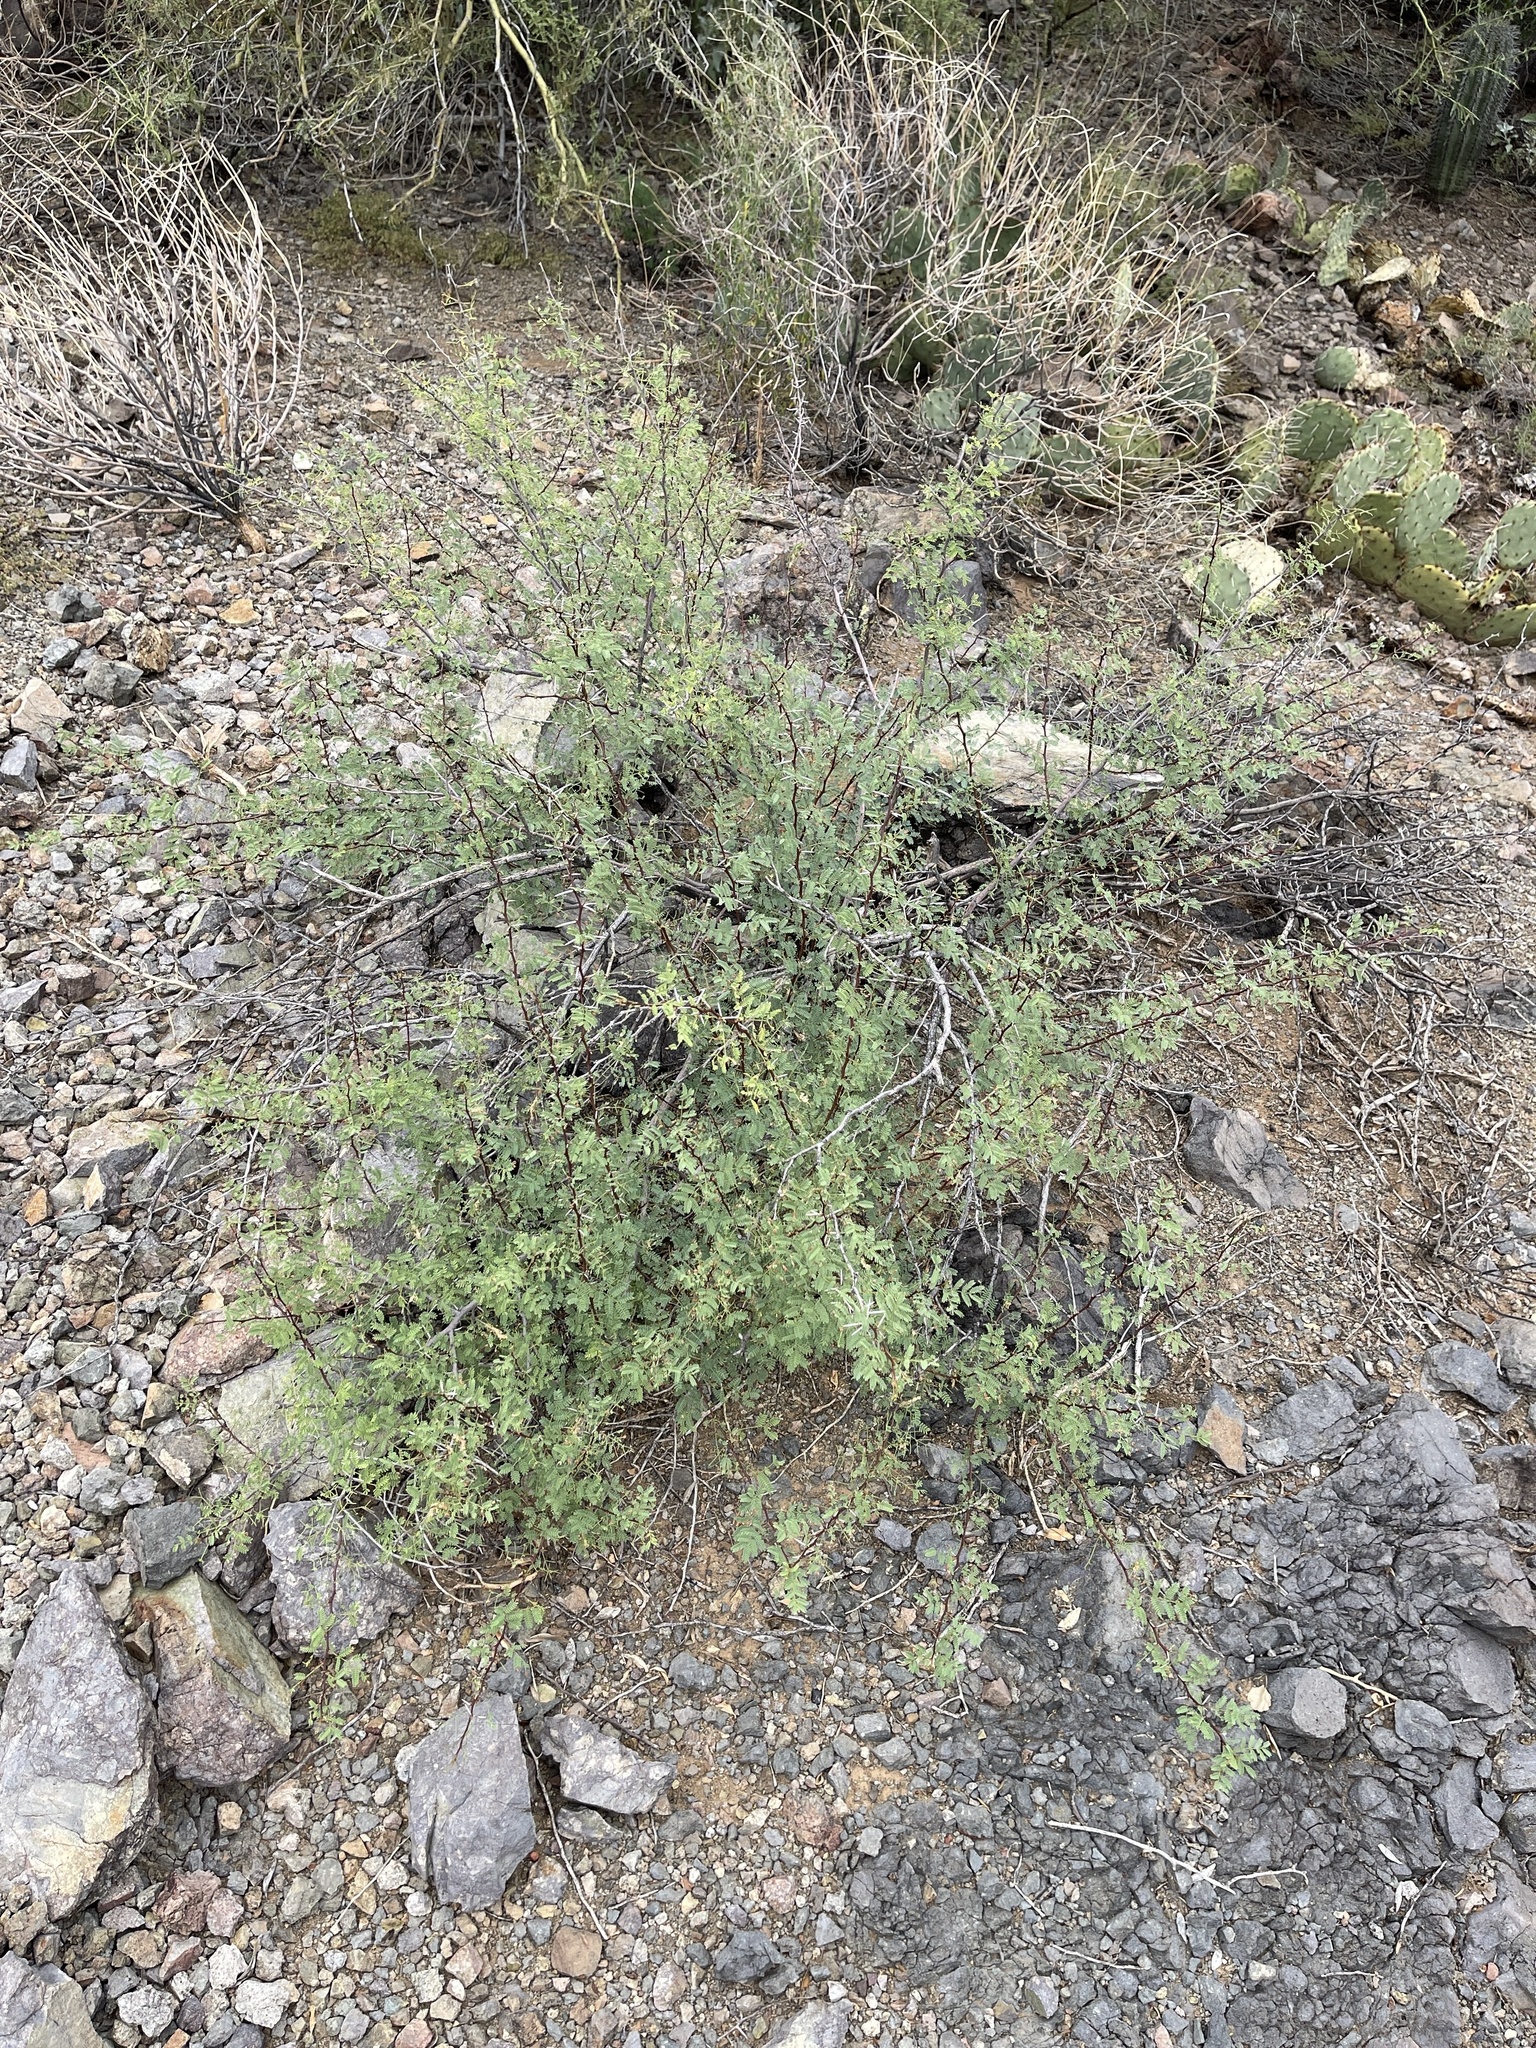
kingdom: Plantae
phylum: Tracheophyta
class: Magnoliopsida
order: Fabales
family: Fabaceae
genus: Vachellia
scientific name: Vachellia constricta
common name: Mescat acacia
